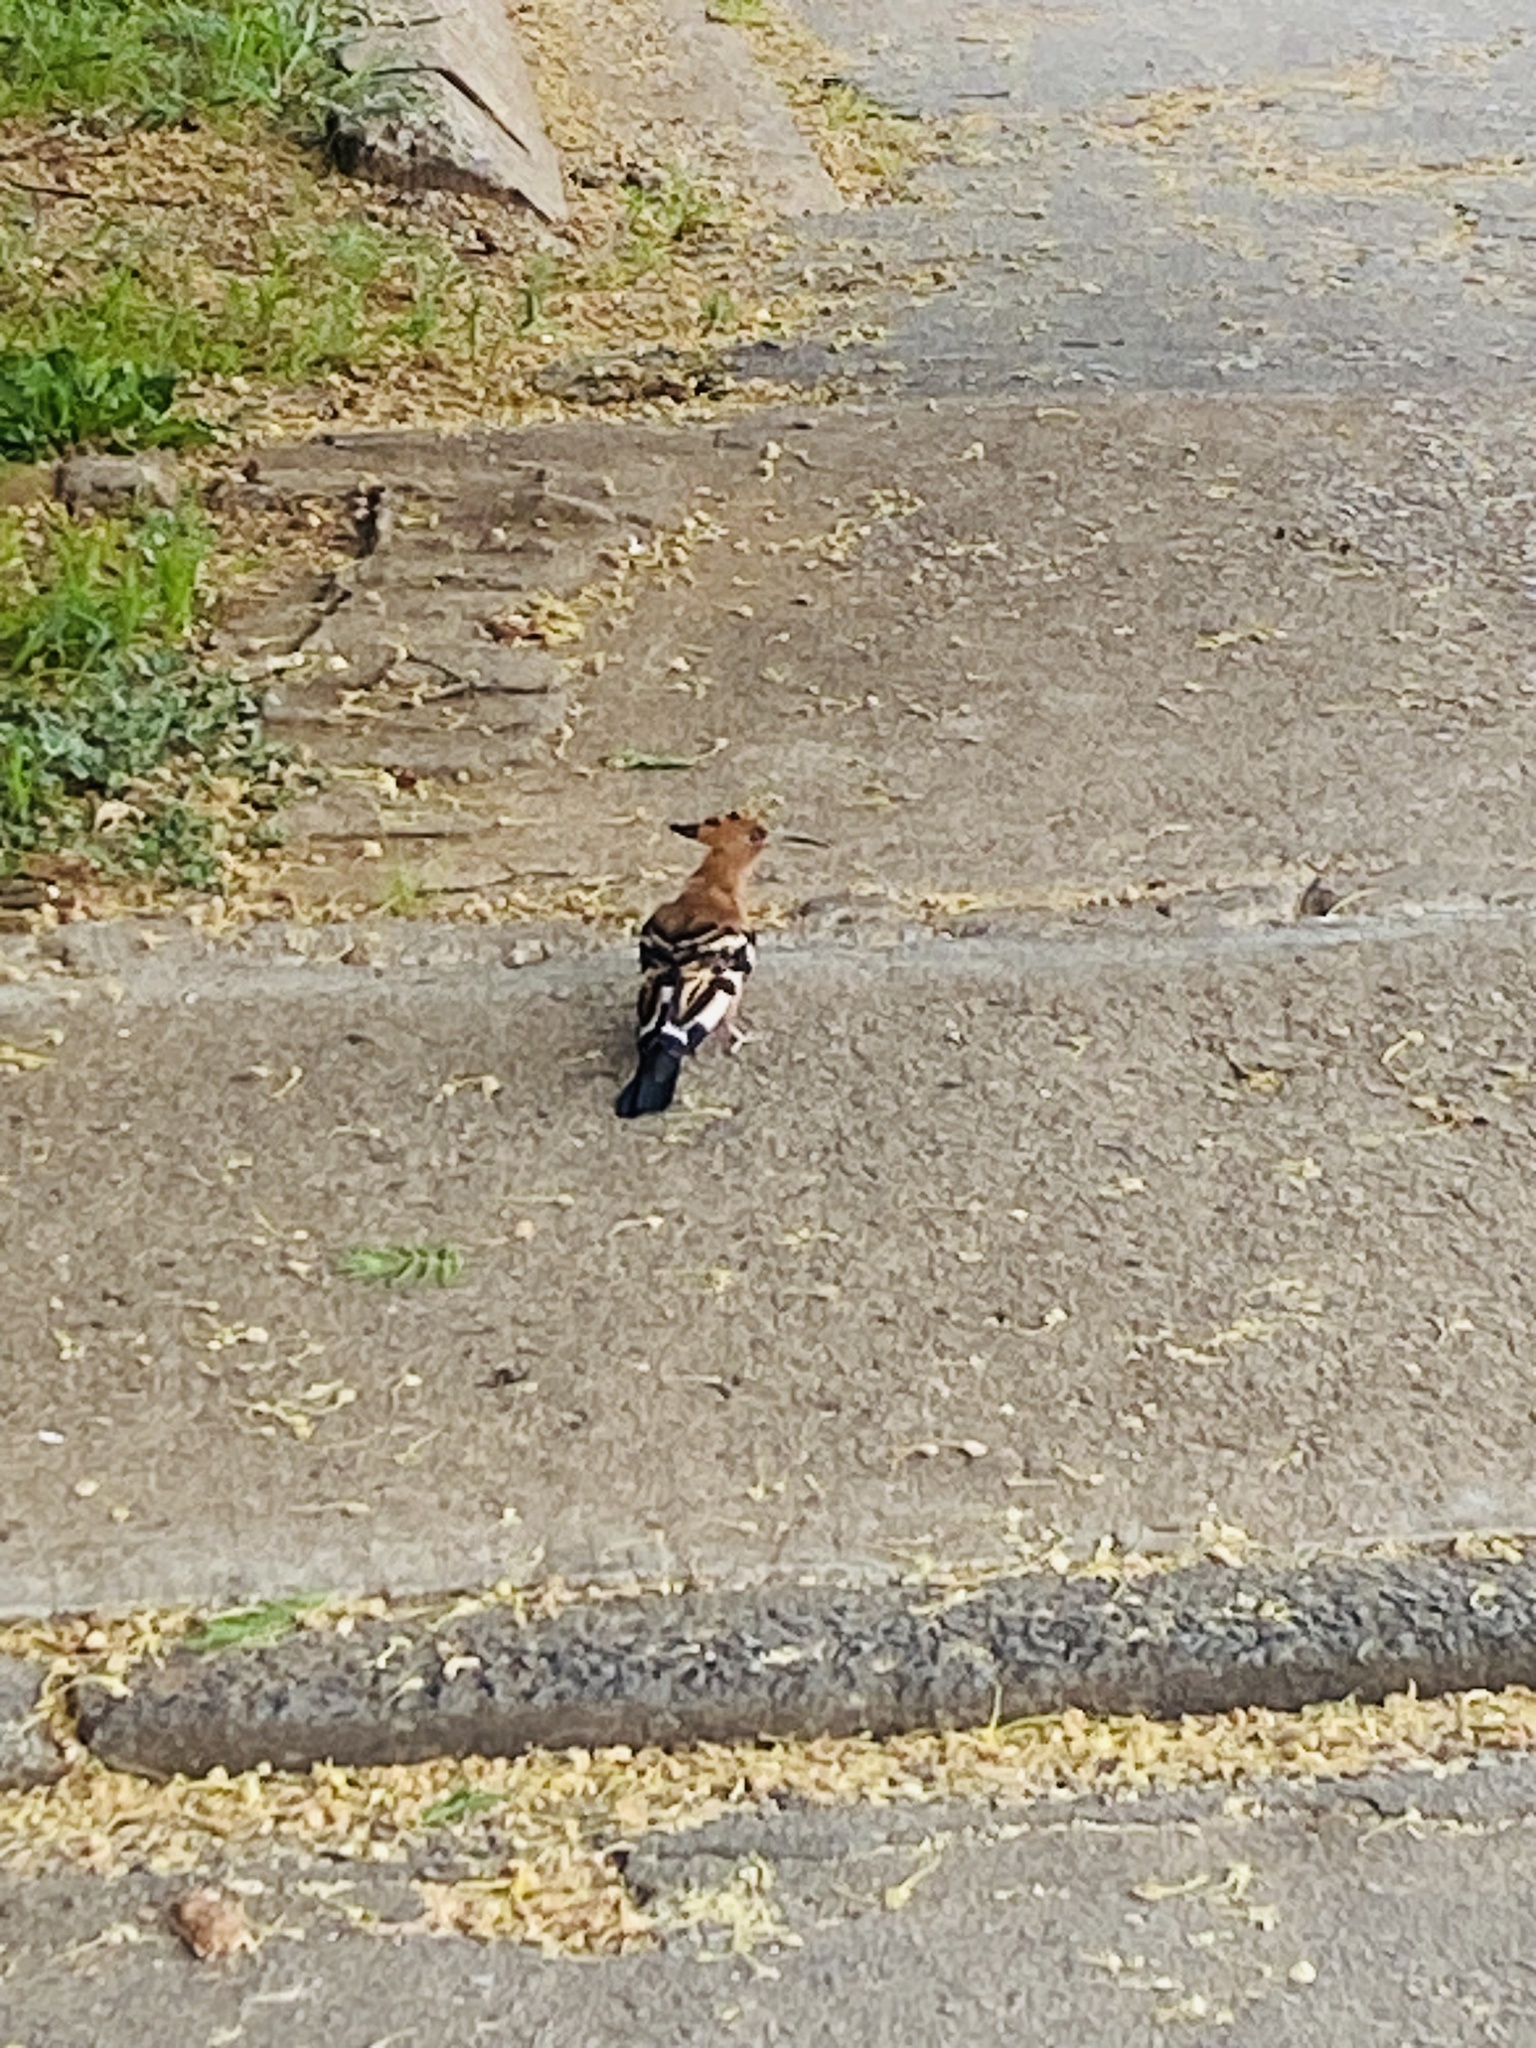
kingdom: Animalia
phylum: Chordata
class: Aves
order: Bucerotiformes
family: Upupidae
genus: Upupa
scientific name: Upupa africana
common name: African hoopoe
